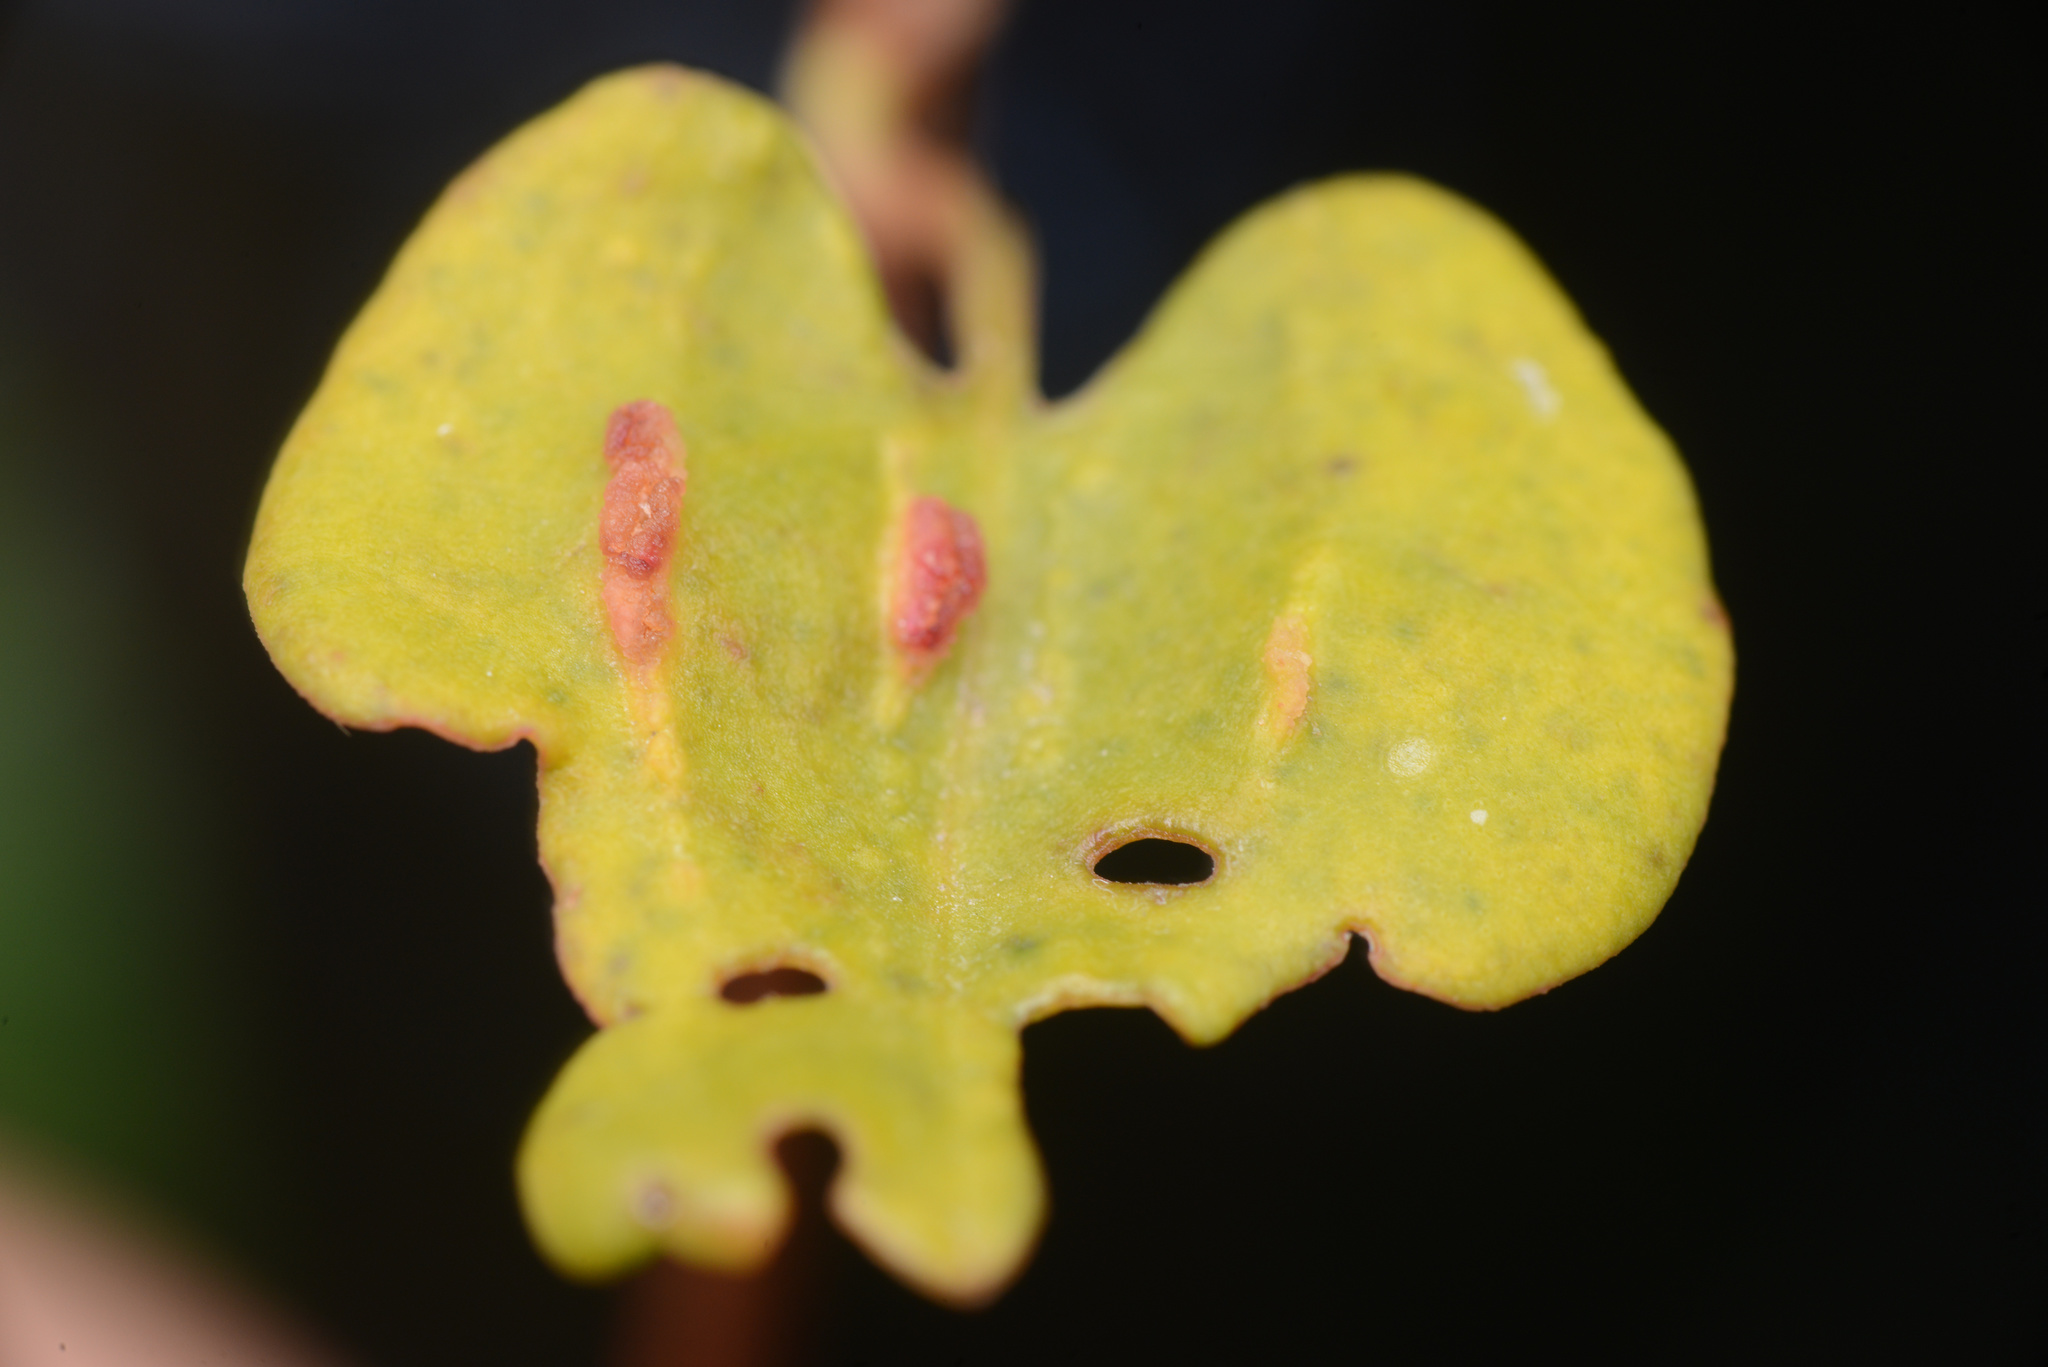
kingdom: Animalia
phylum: Arthropoda
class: Arachnida
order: Trombidiformes
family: Eriophyidae
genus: Aceria
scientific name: Aceria lamii
